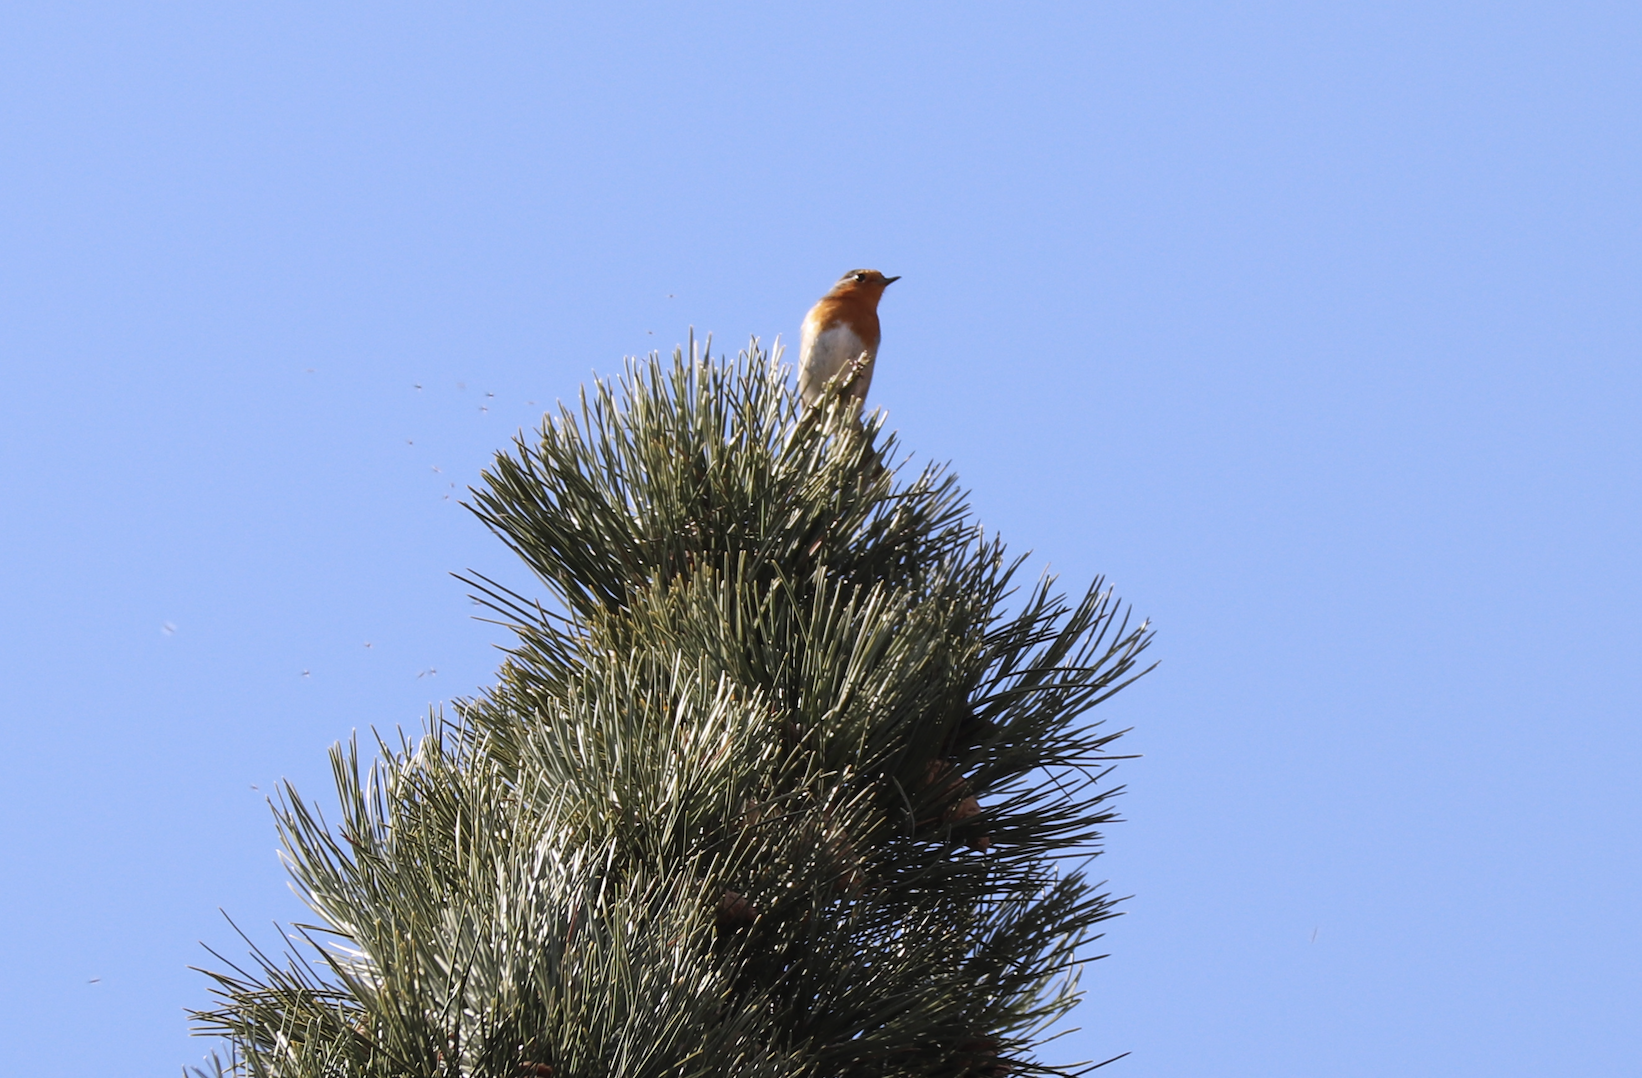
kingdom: Animalia
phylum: Chordata
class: Aves
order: Passeriformes
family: Muscicapidae
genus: Erithacus
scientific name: Erithacus rubecula
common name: European robin
